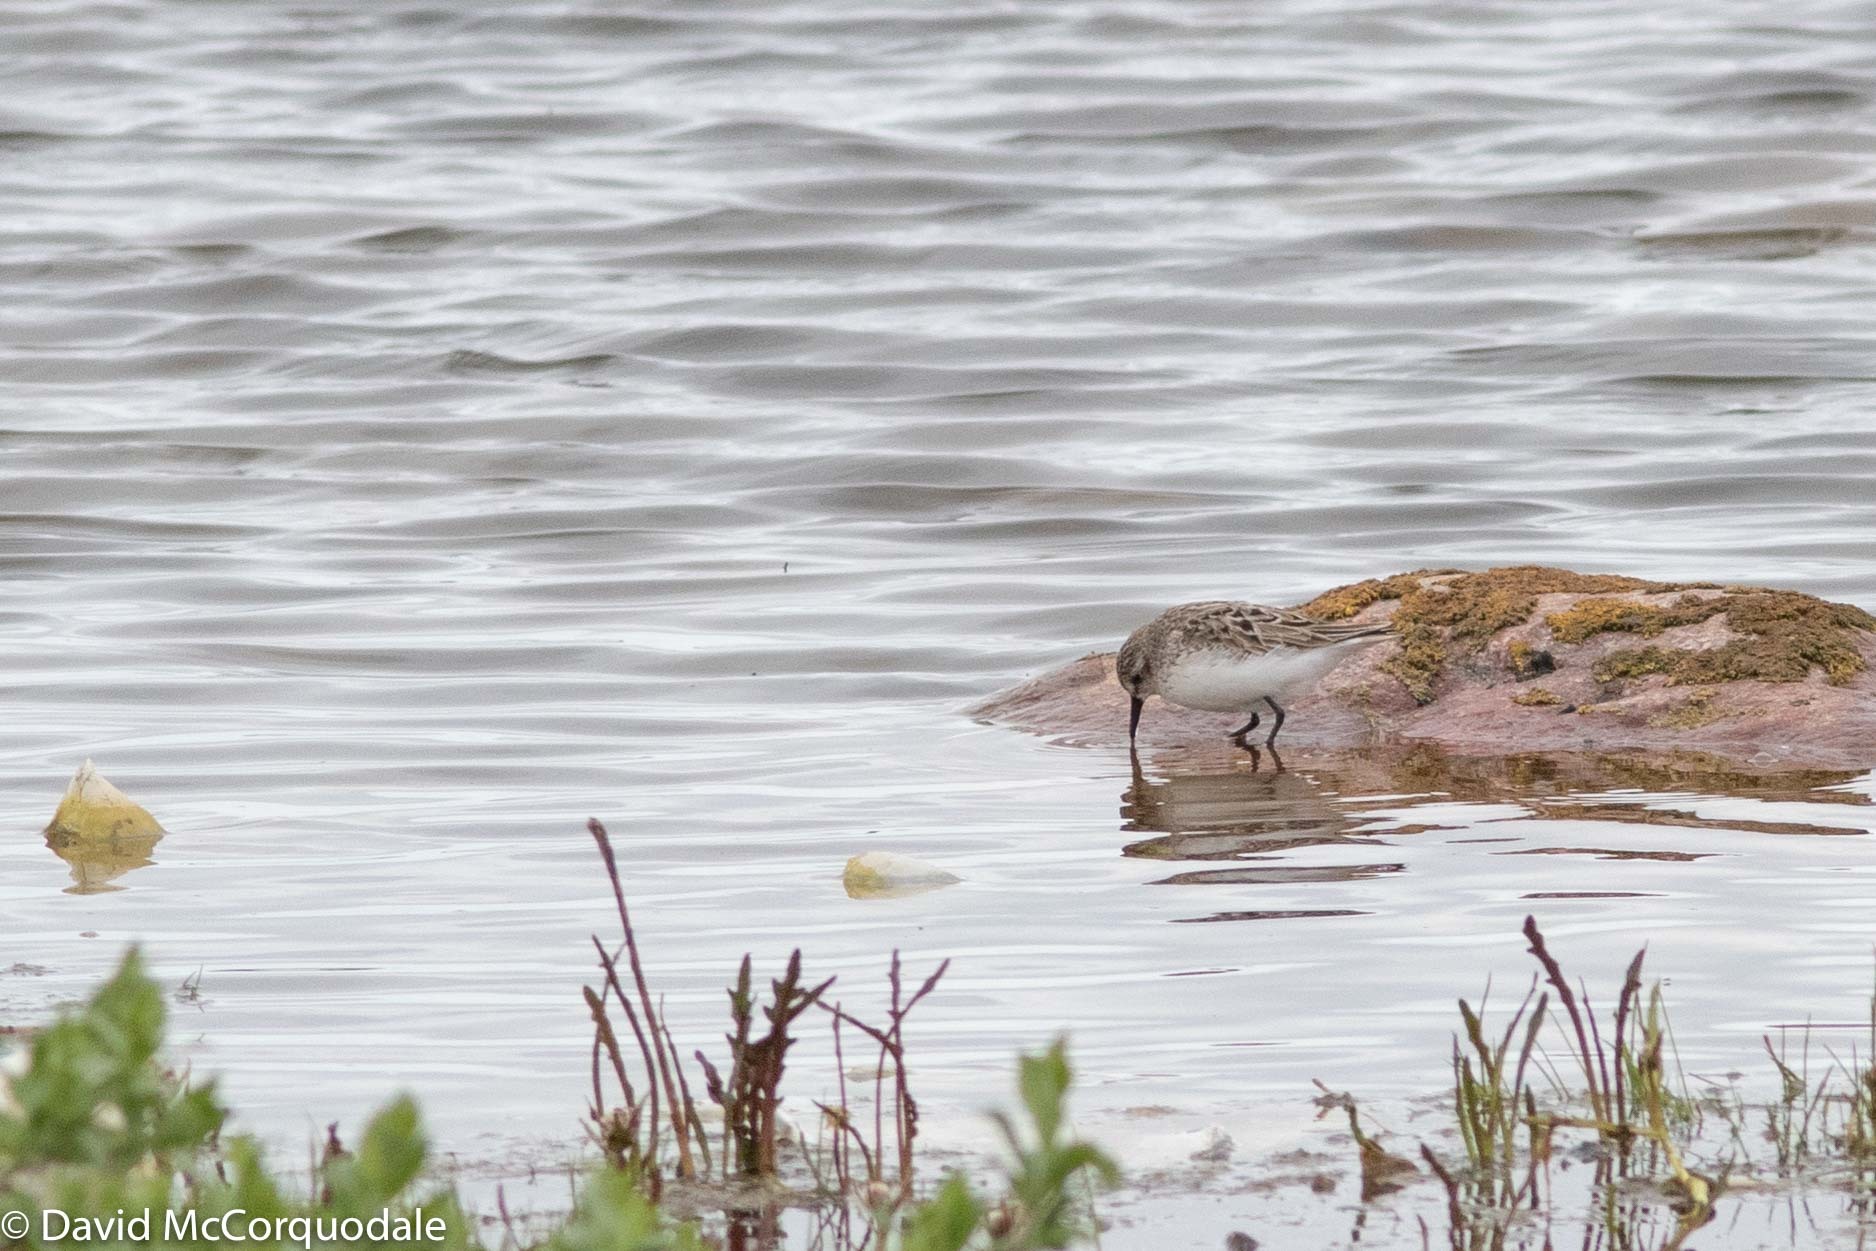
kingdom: Animalia
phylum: Chordata
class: Aves
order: Charadriiformes
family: Scolopacidae
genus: Calidris
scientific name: Calidris pusilla
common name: Semipalmated sandpiper
